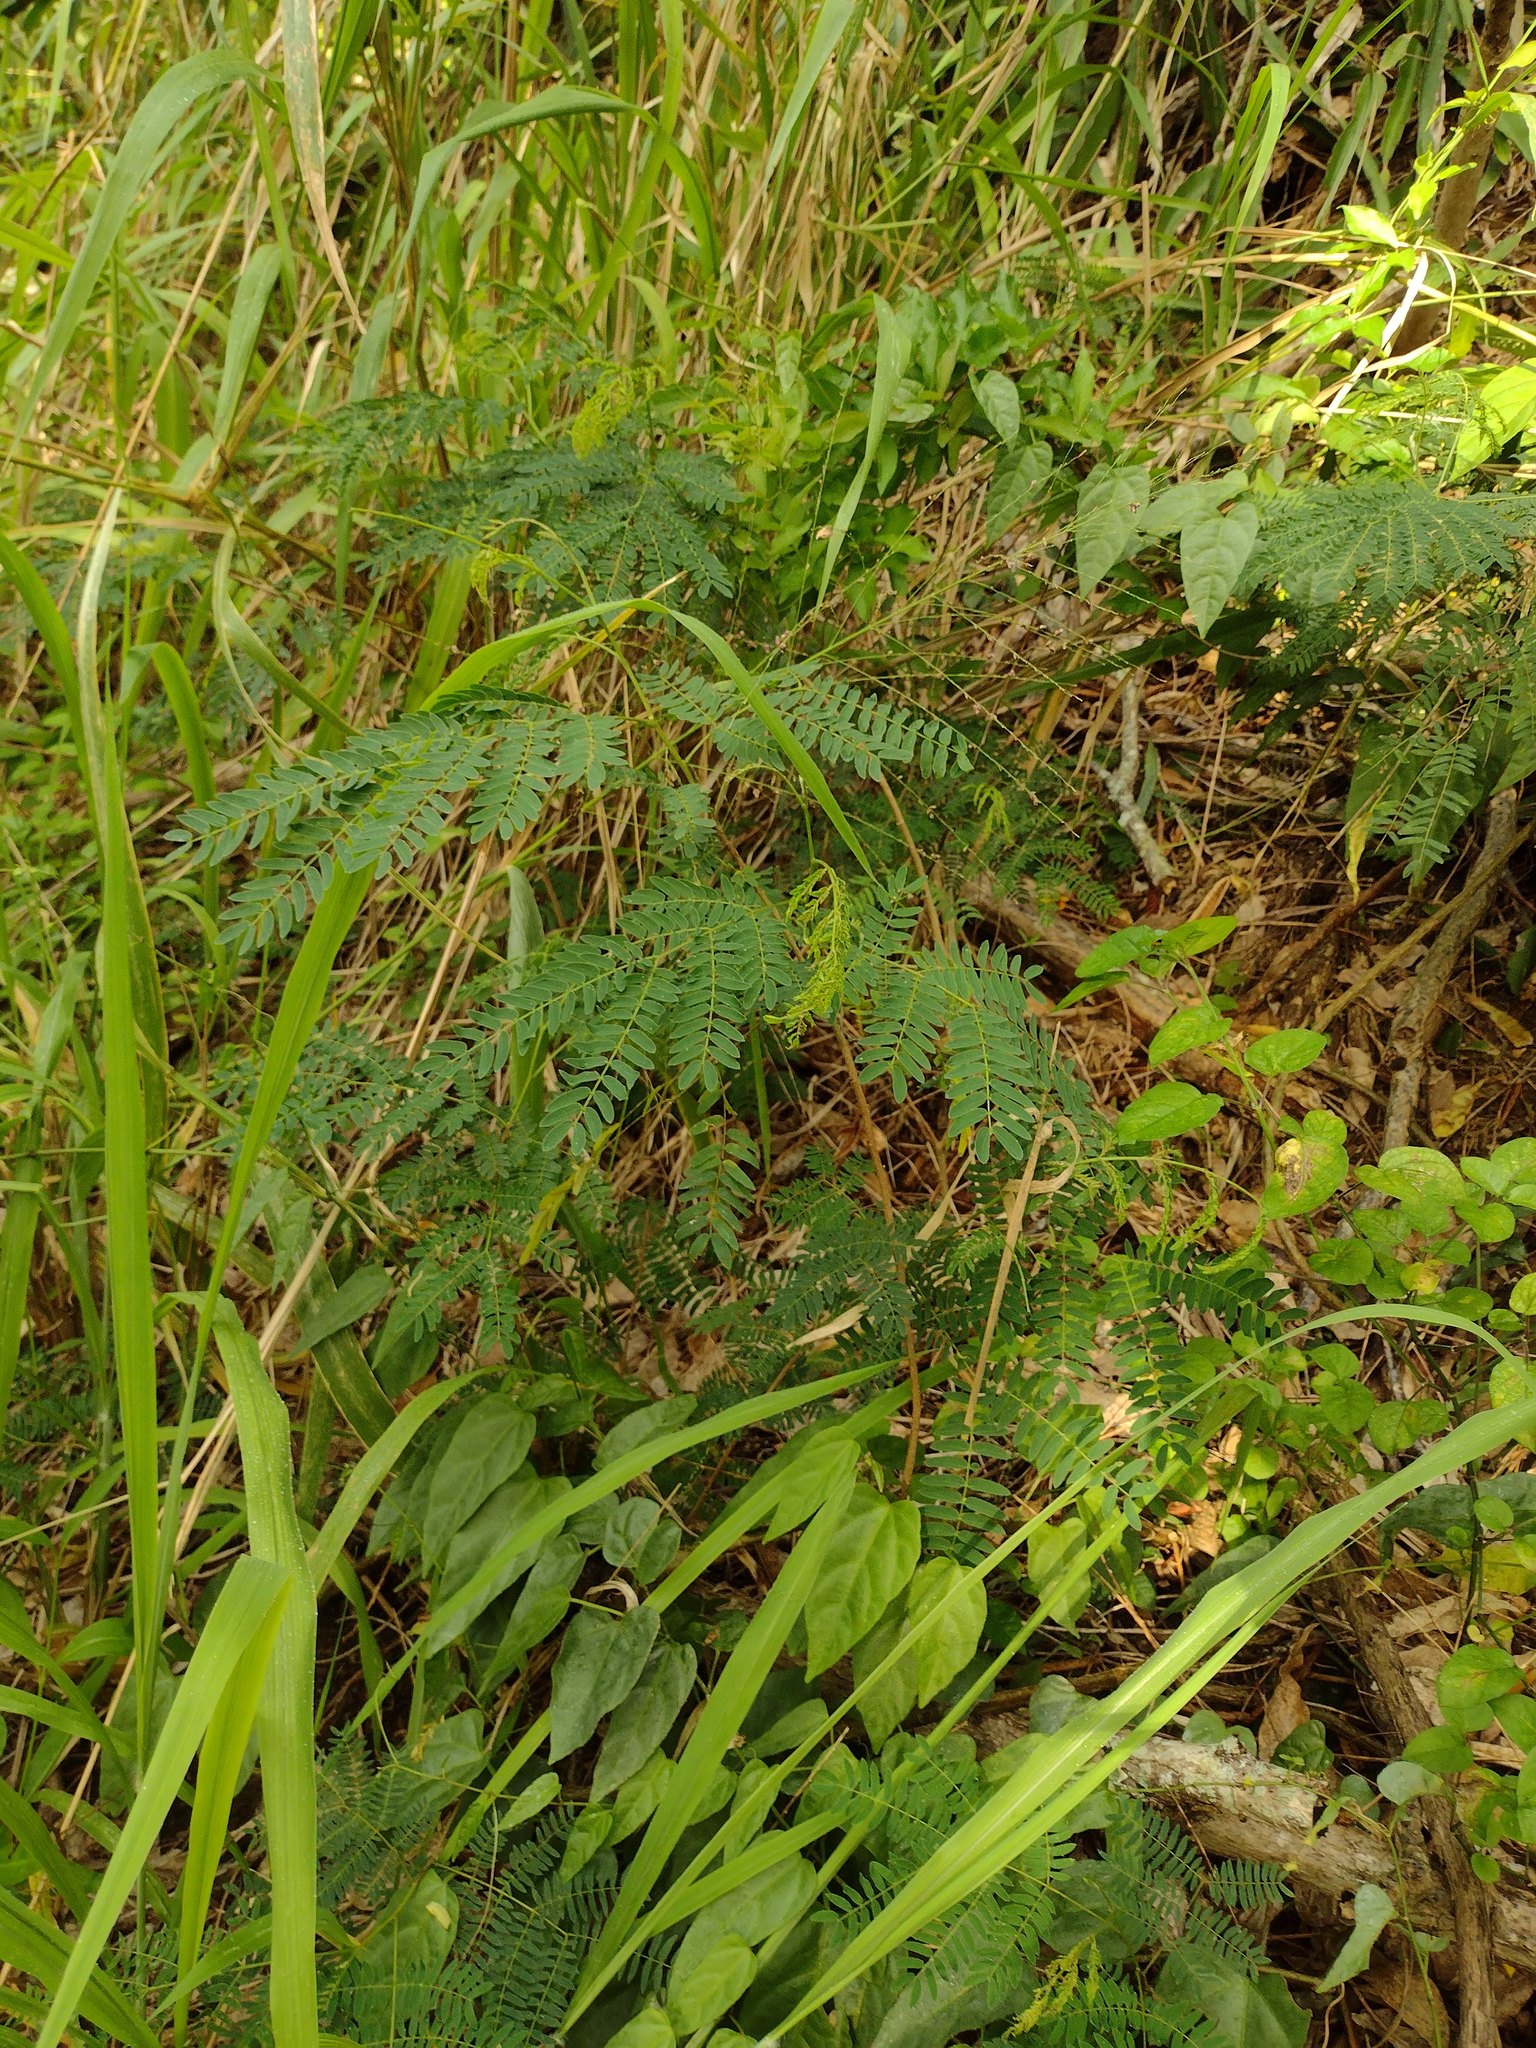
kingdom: Plantae
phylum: Tracheophyta
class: Magnoliopsida
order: Fabales
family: Fabaceae
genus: Leucaena
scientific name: Leucaena leucocephala
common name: White leadtree
